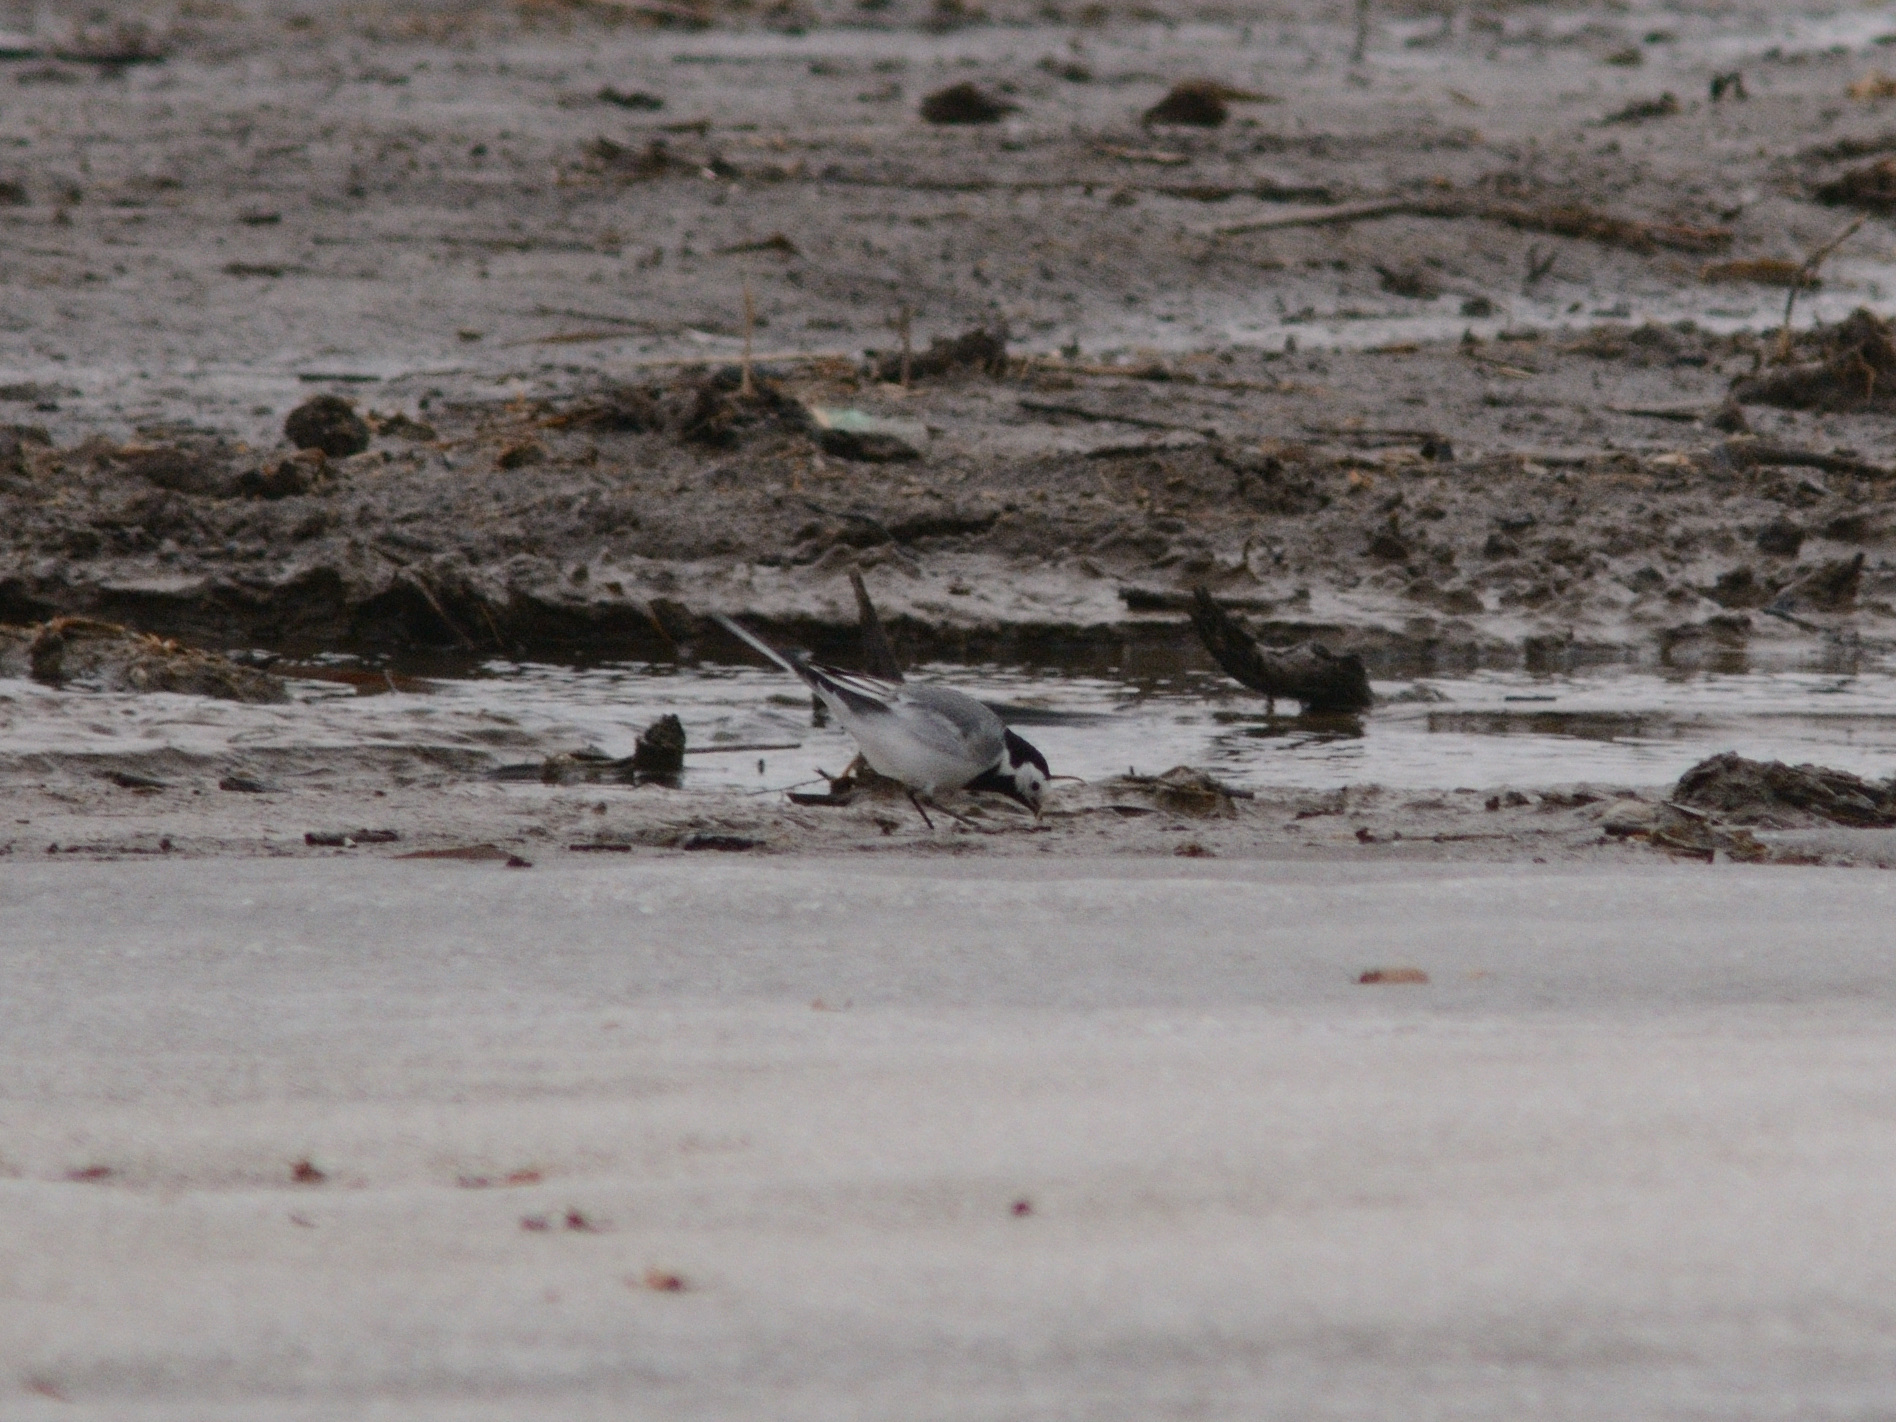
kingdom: Animalia
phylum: Chordata
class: Aves
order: Passeriformes
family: Motacillidae
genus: Motacilla
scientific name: Motacilla alba
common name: White wagtail
